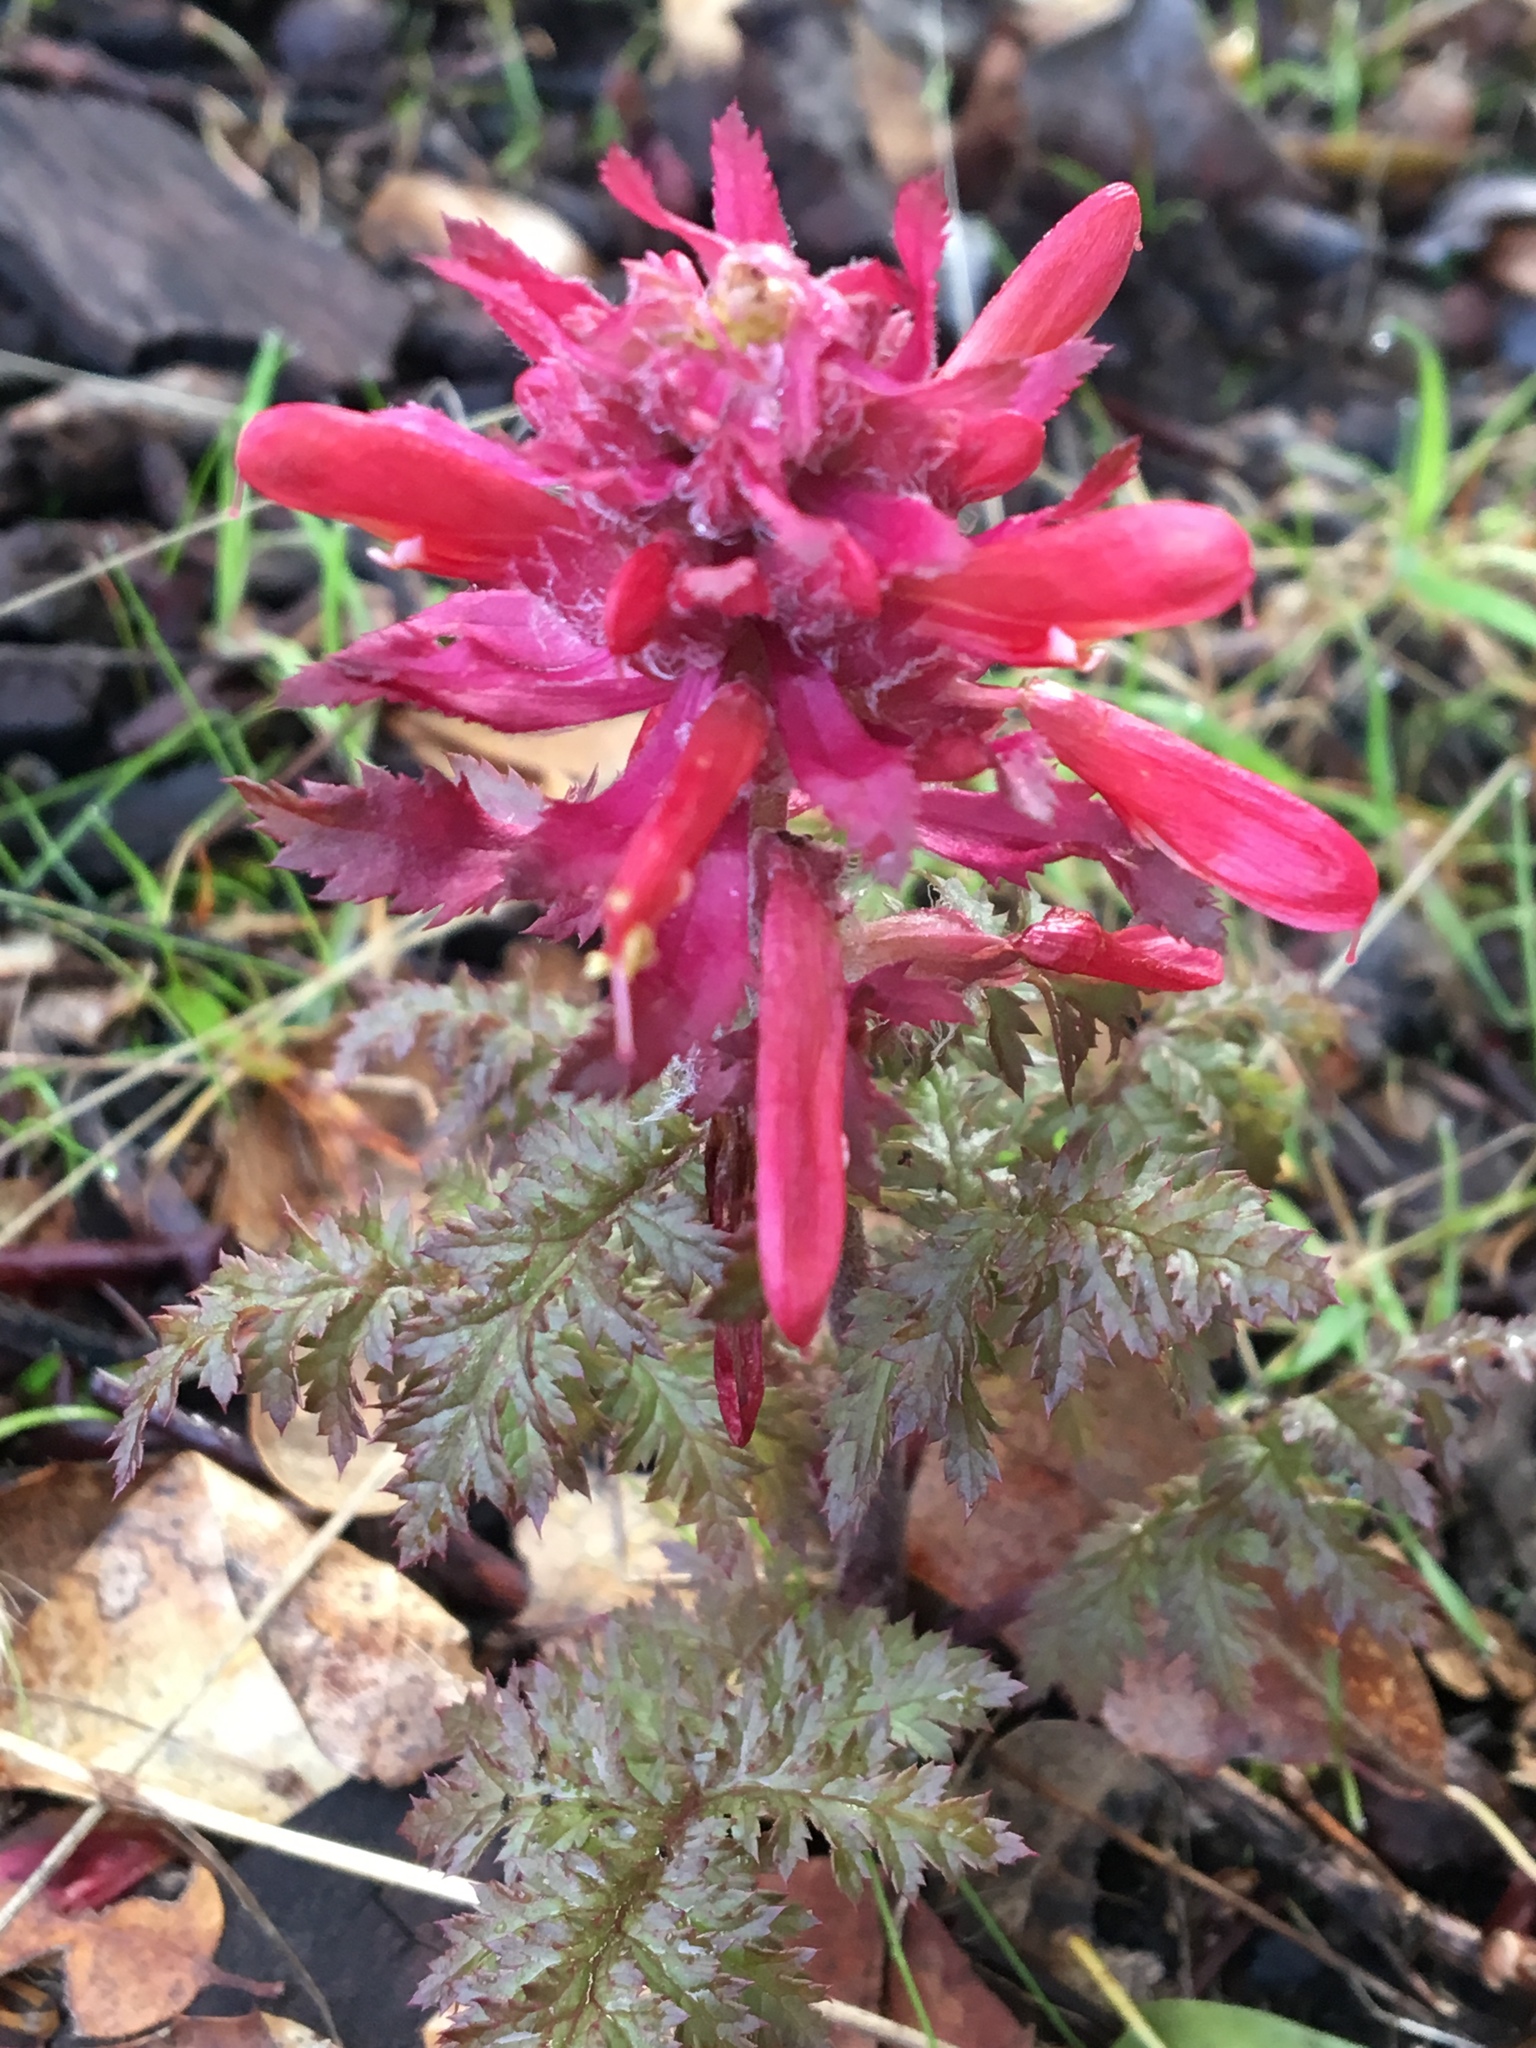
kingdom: Plantae
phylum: Tracheophyta
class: Magnoliopsida
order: Lamiales
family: Orobanchaceae
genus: Pedicularis
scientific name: Pedicularis densiflora
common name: Indian warrior
